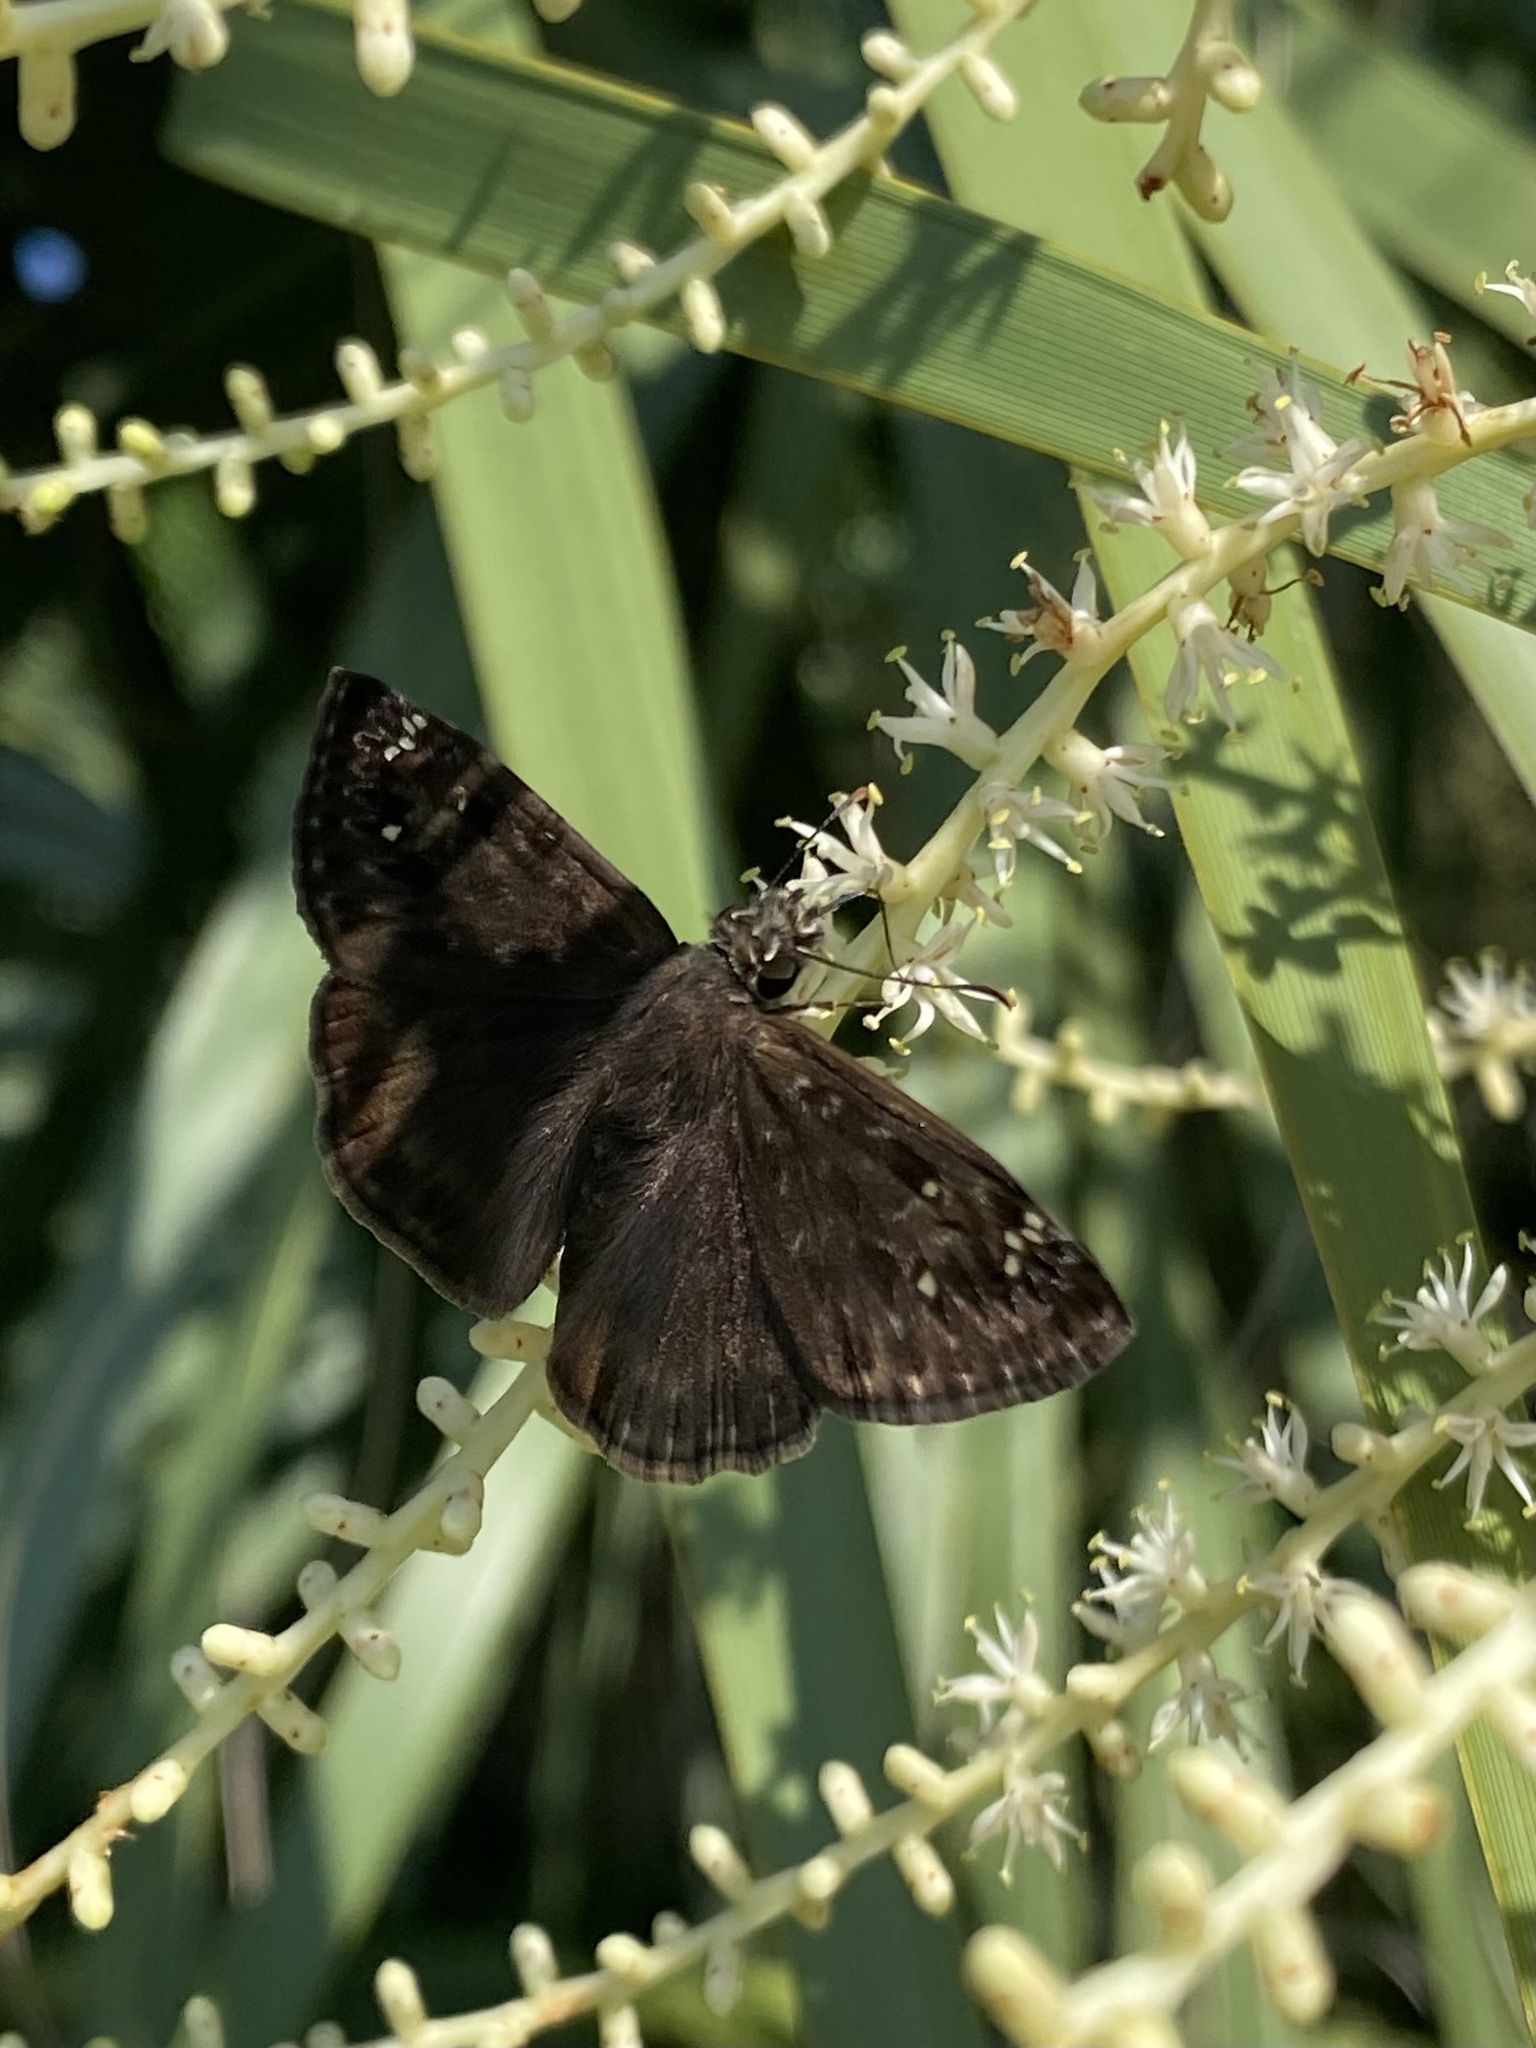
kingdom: Animalia
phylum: Arthropoda
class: Insecta
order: Lepidoptera
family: Hesperiidae
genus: Erynnis
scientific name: Erynnis horatius
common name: Horace's duskywing
